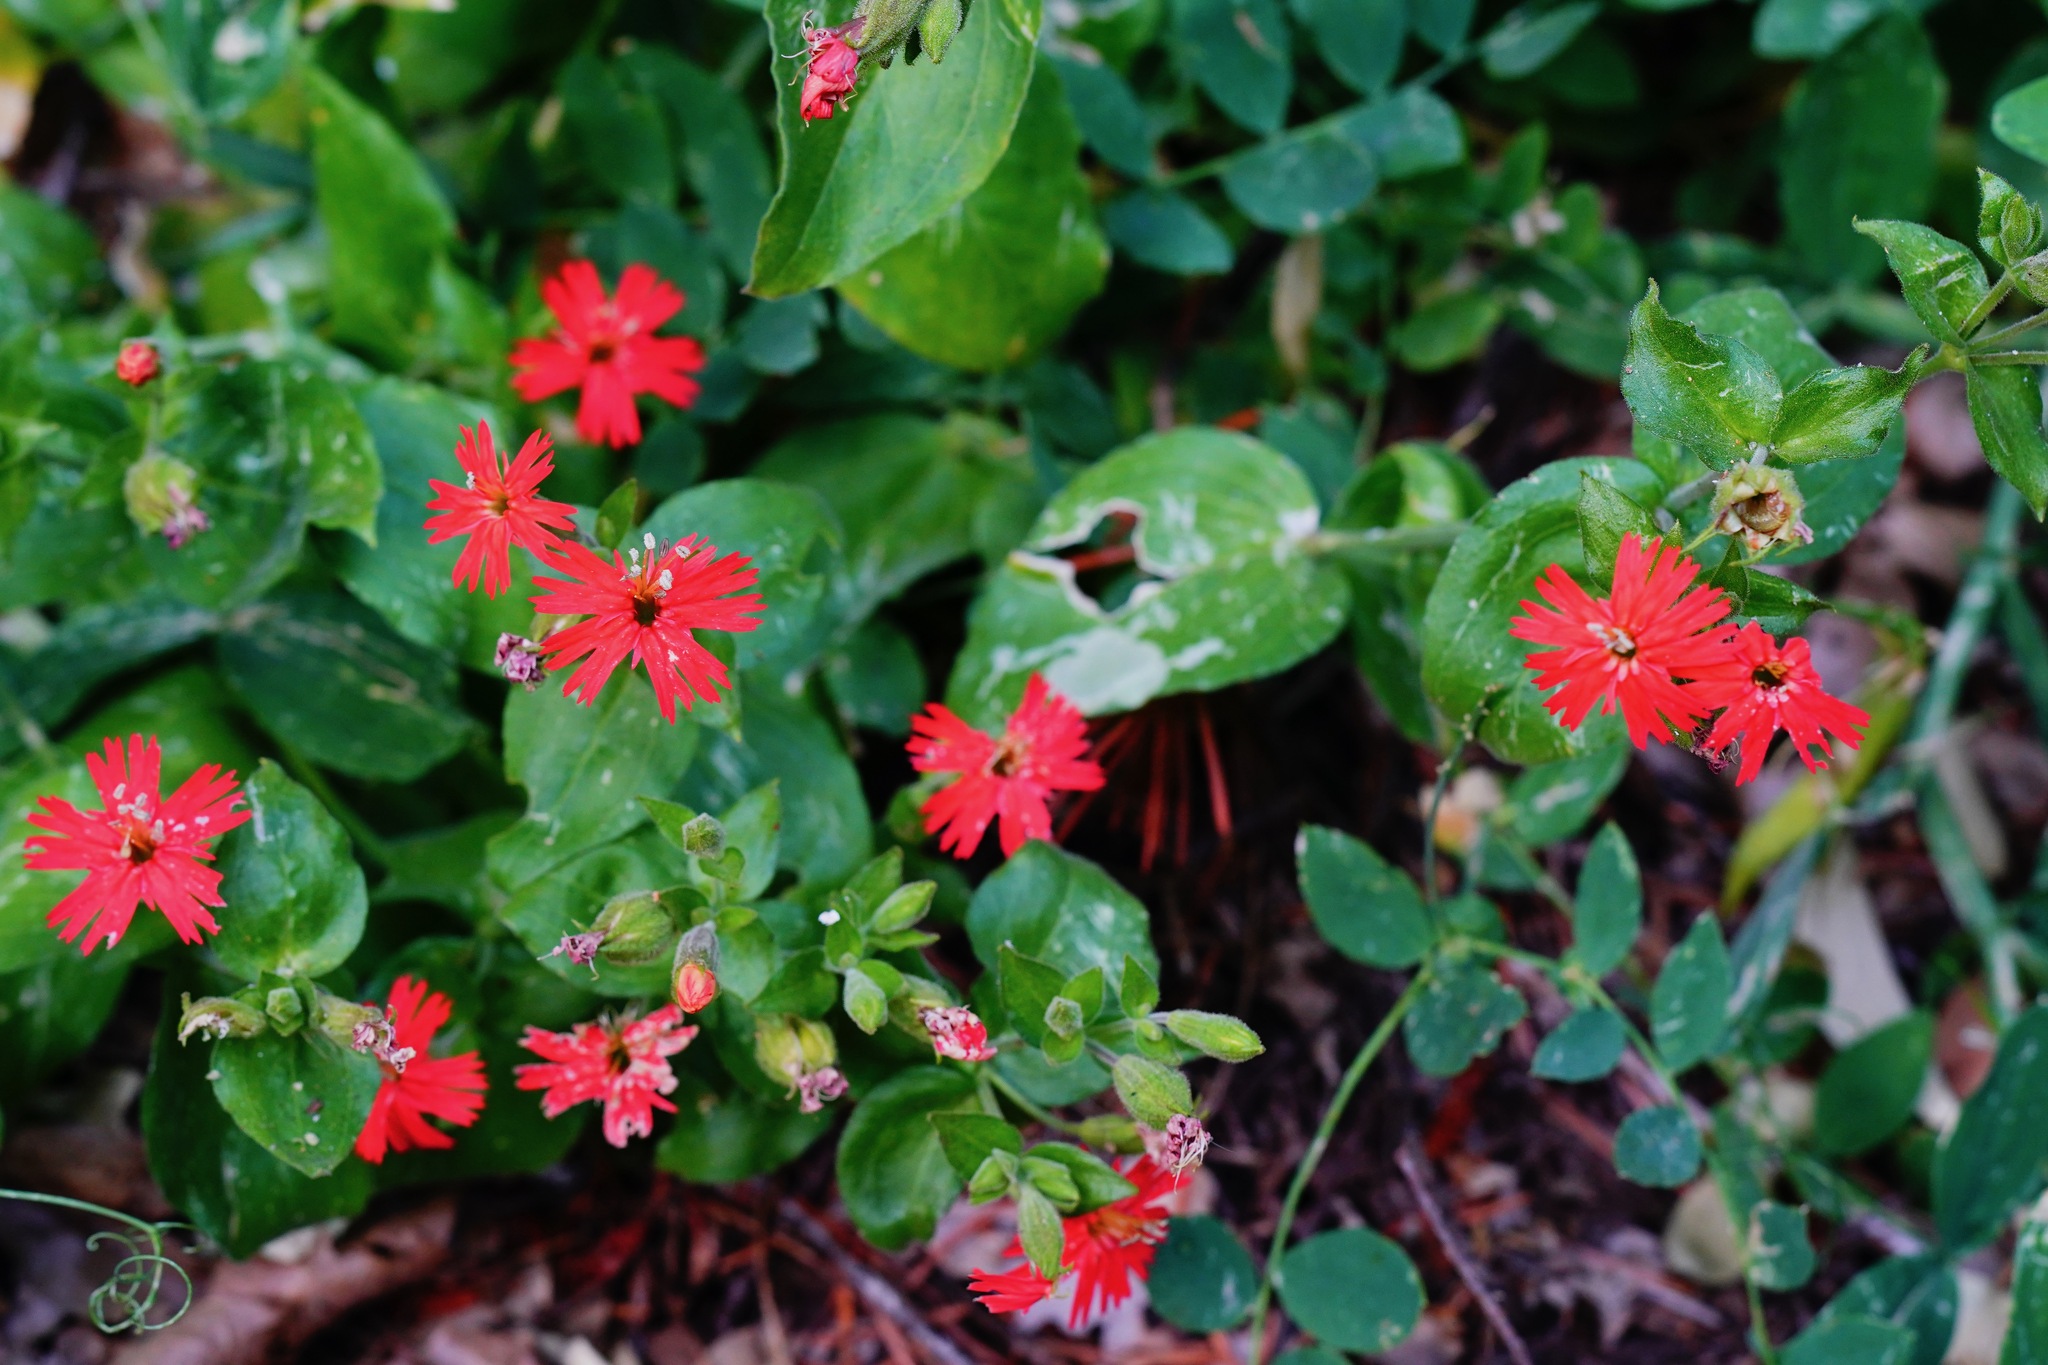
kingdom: Plantae
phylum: Tracheophyta
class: Magnoliopsida
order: Caryophyllales
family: Caryophyllaceae
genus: Silene
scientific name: Silene laciniata
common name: Indian-pink
